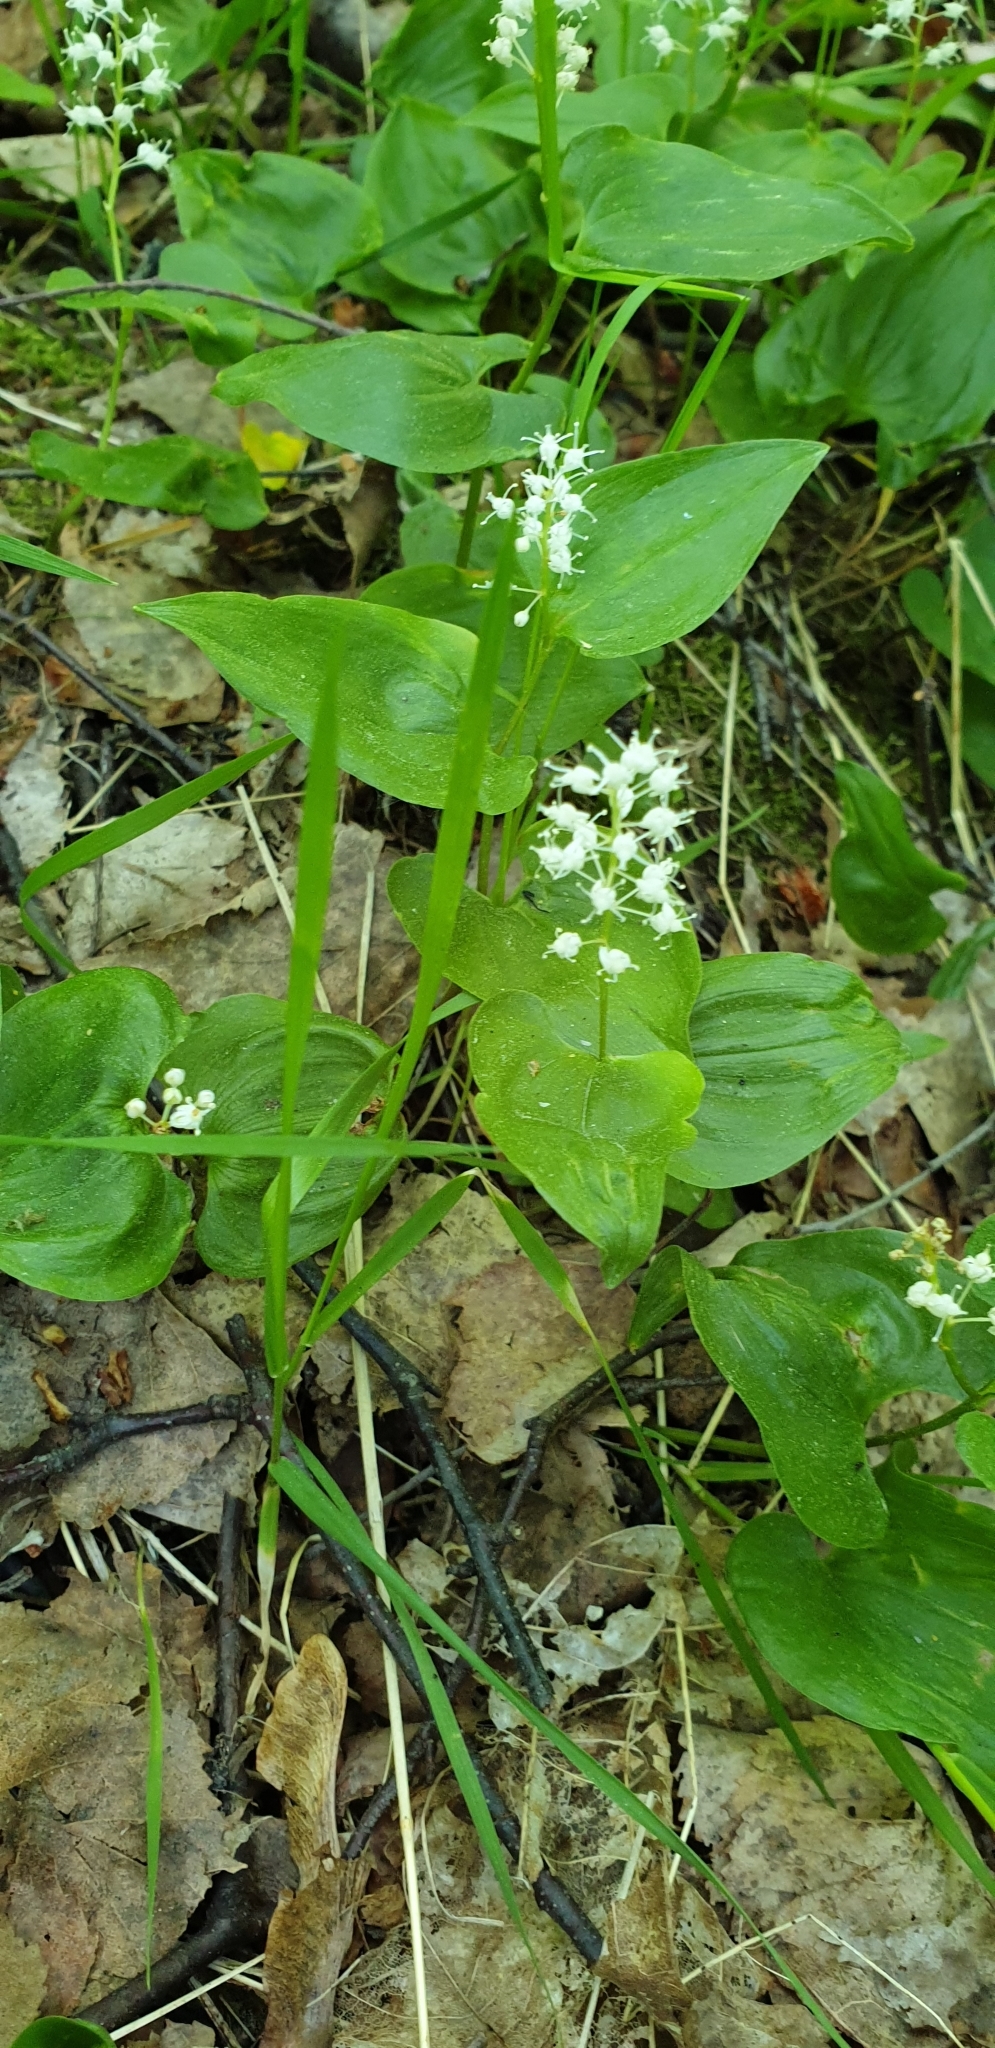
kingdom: Plantae
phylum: Tracheophyta
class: Liliopsida
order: Asparagales
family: Asparagaceae
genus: Maianthemum
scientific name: Maianthemum bifolium
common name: May lily
